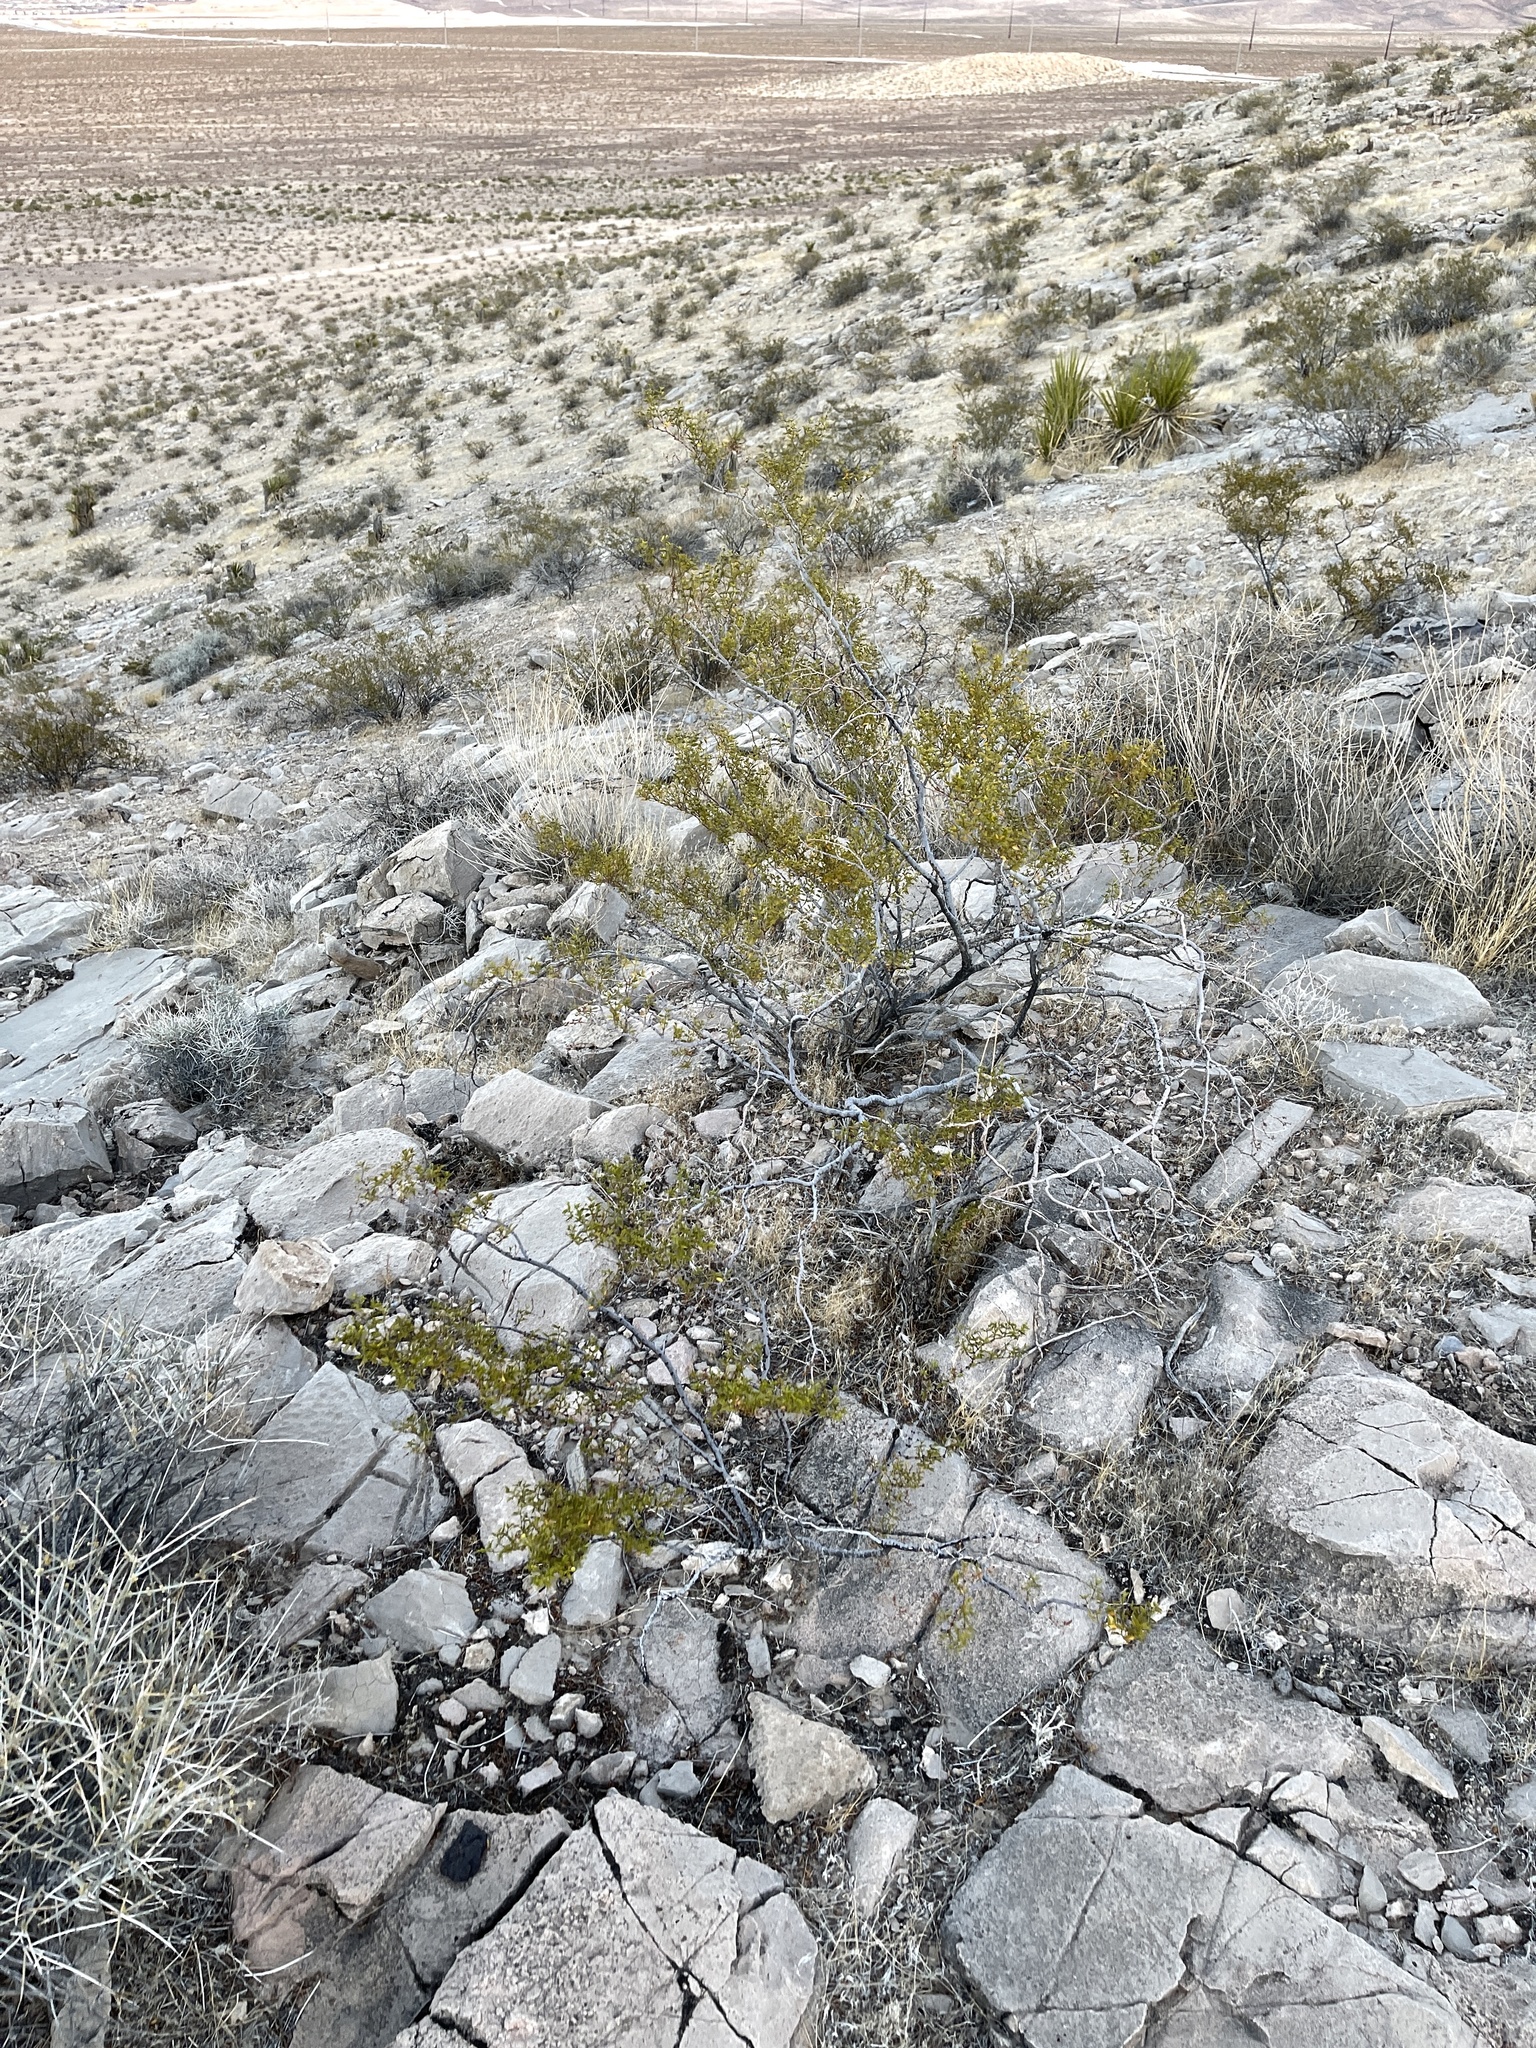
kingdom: Plantae
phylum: Tracheophyta
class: Magnoliopsida
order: Zygophyllales
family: Zygophyllaceae
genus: Larrea
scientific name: Larrea tridentata
